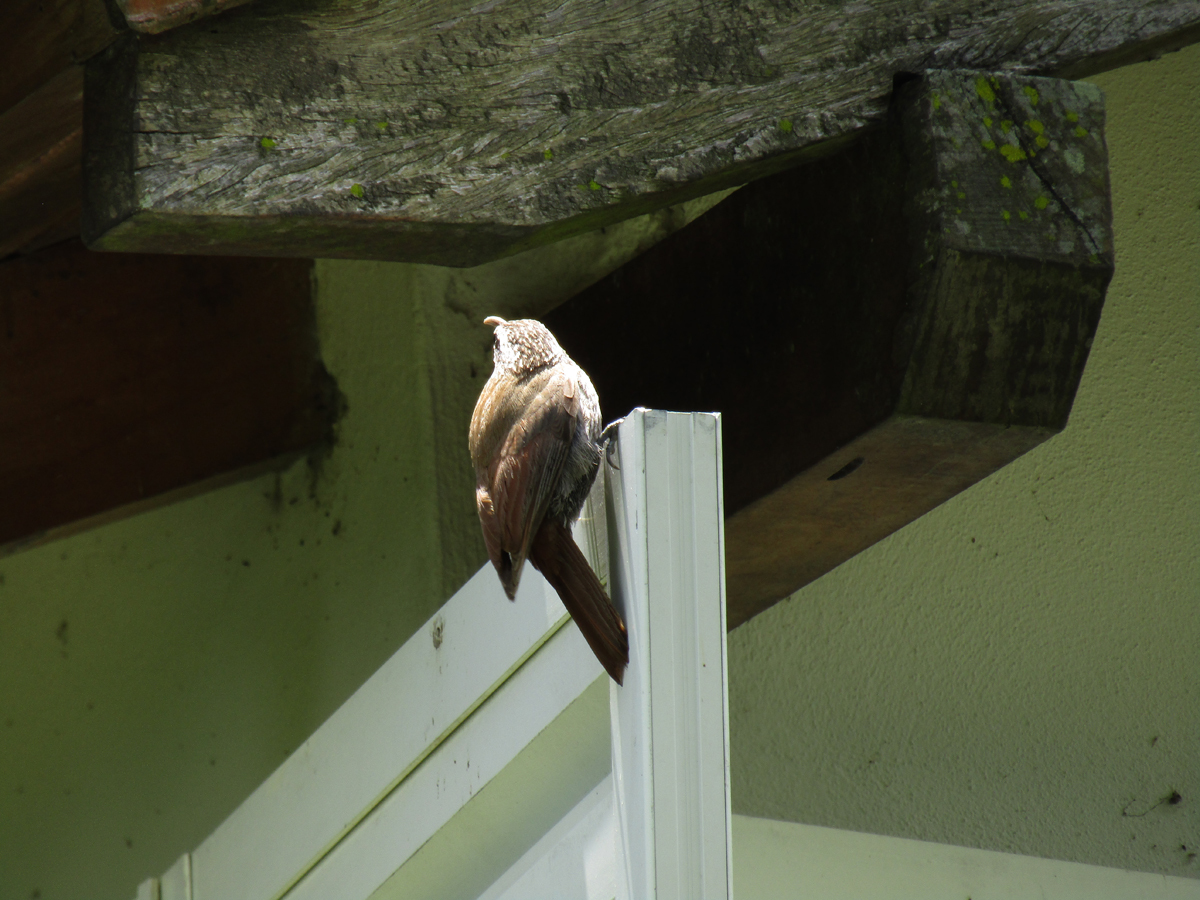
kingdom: Animalia
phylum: Chordata
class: Aves
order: Passeriformes
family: Furnariidae
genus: Lepidocolaptes
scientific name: Lepidocolaptes angustirostris
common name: Narrow-billed woodcreeper
